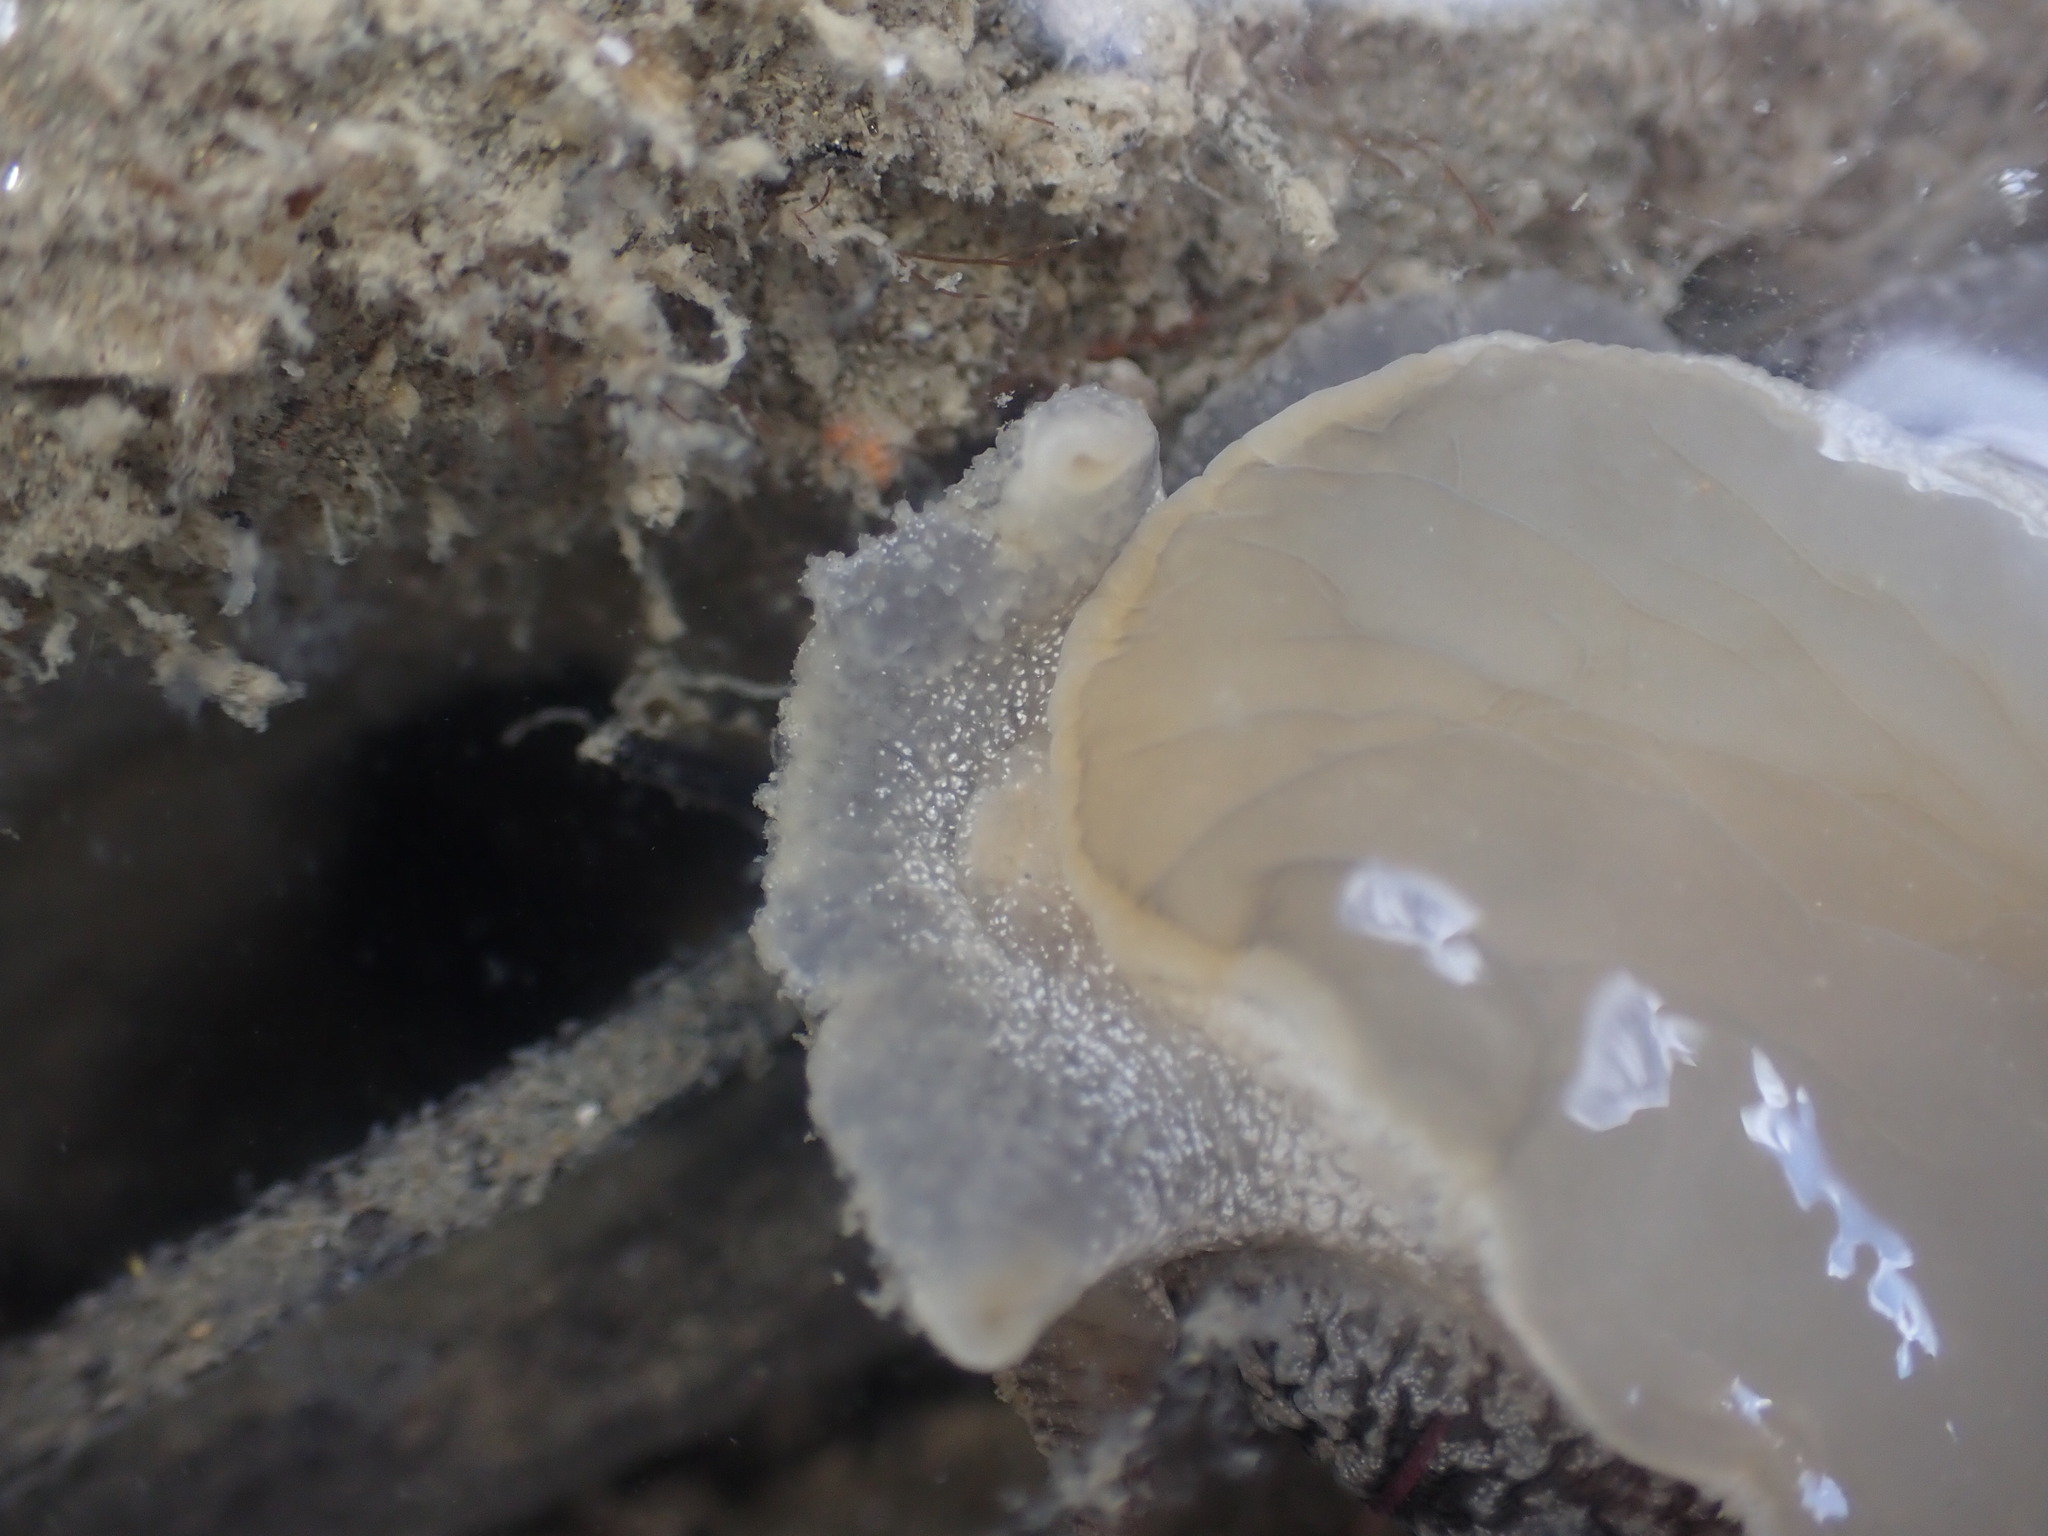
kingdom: Animalia
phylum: Mollusca
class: Gastropoda
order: Pleurobranchida
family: Pleurobranchaeidae
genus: Pleurobranchaea
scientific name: Pleurobranchaea maculata
